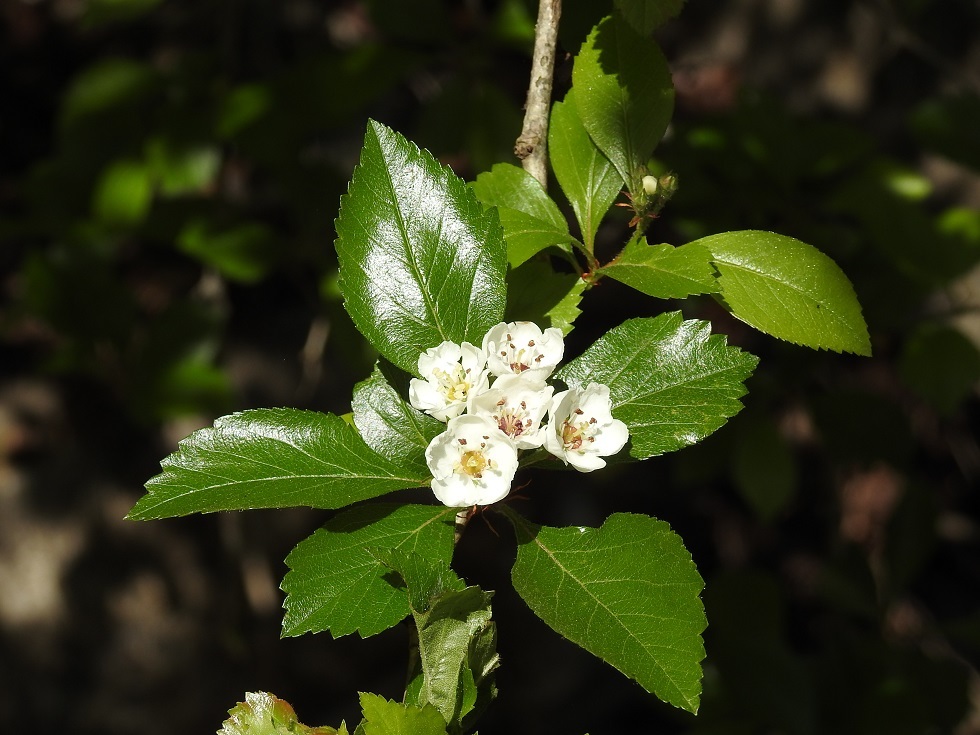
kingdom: Plantae
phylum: Tracheophyta
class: Magnoliopsida
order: Rosales
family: Rosaceae
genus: Crataegus
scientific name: Crataegus mexicana
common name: Mexican hawthorn
